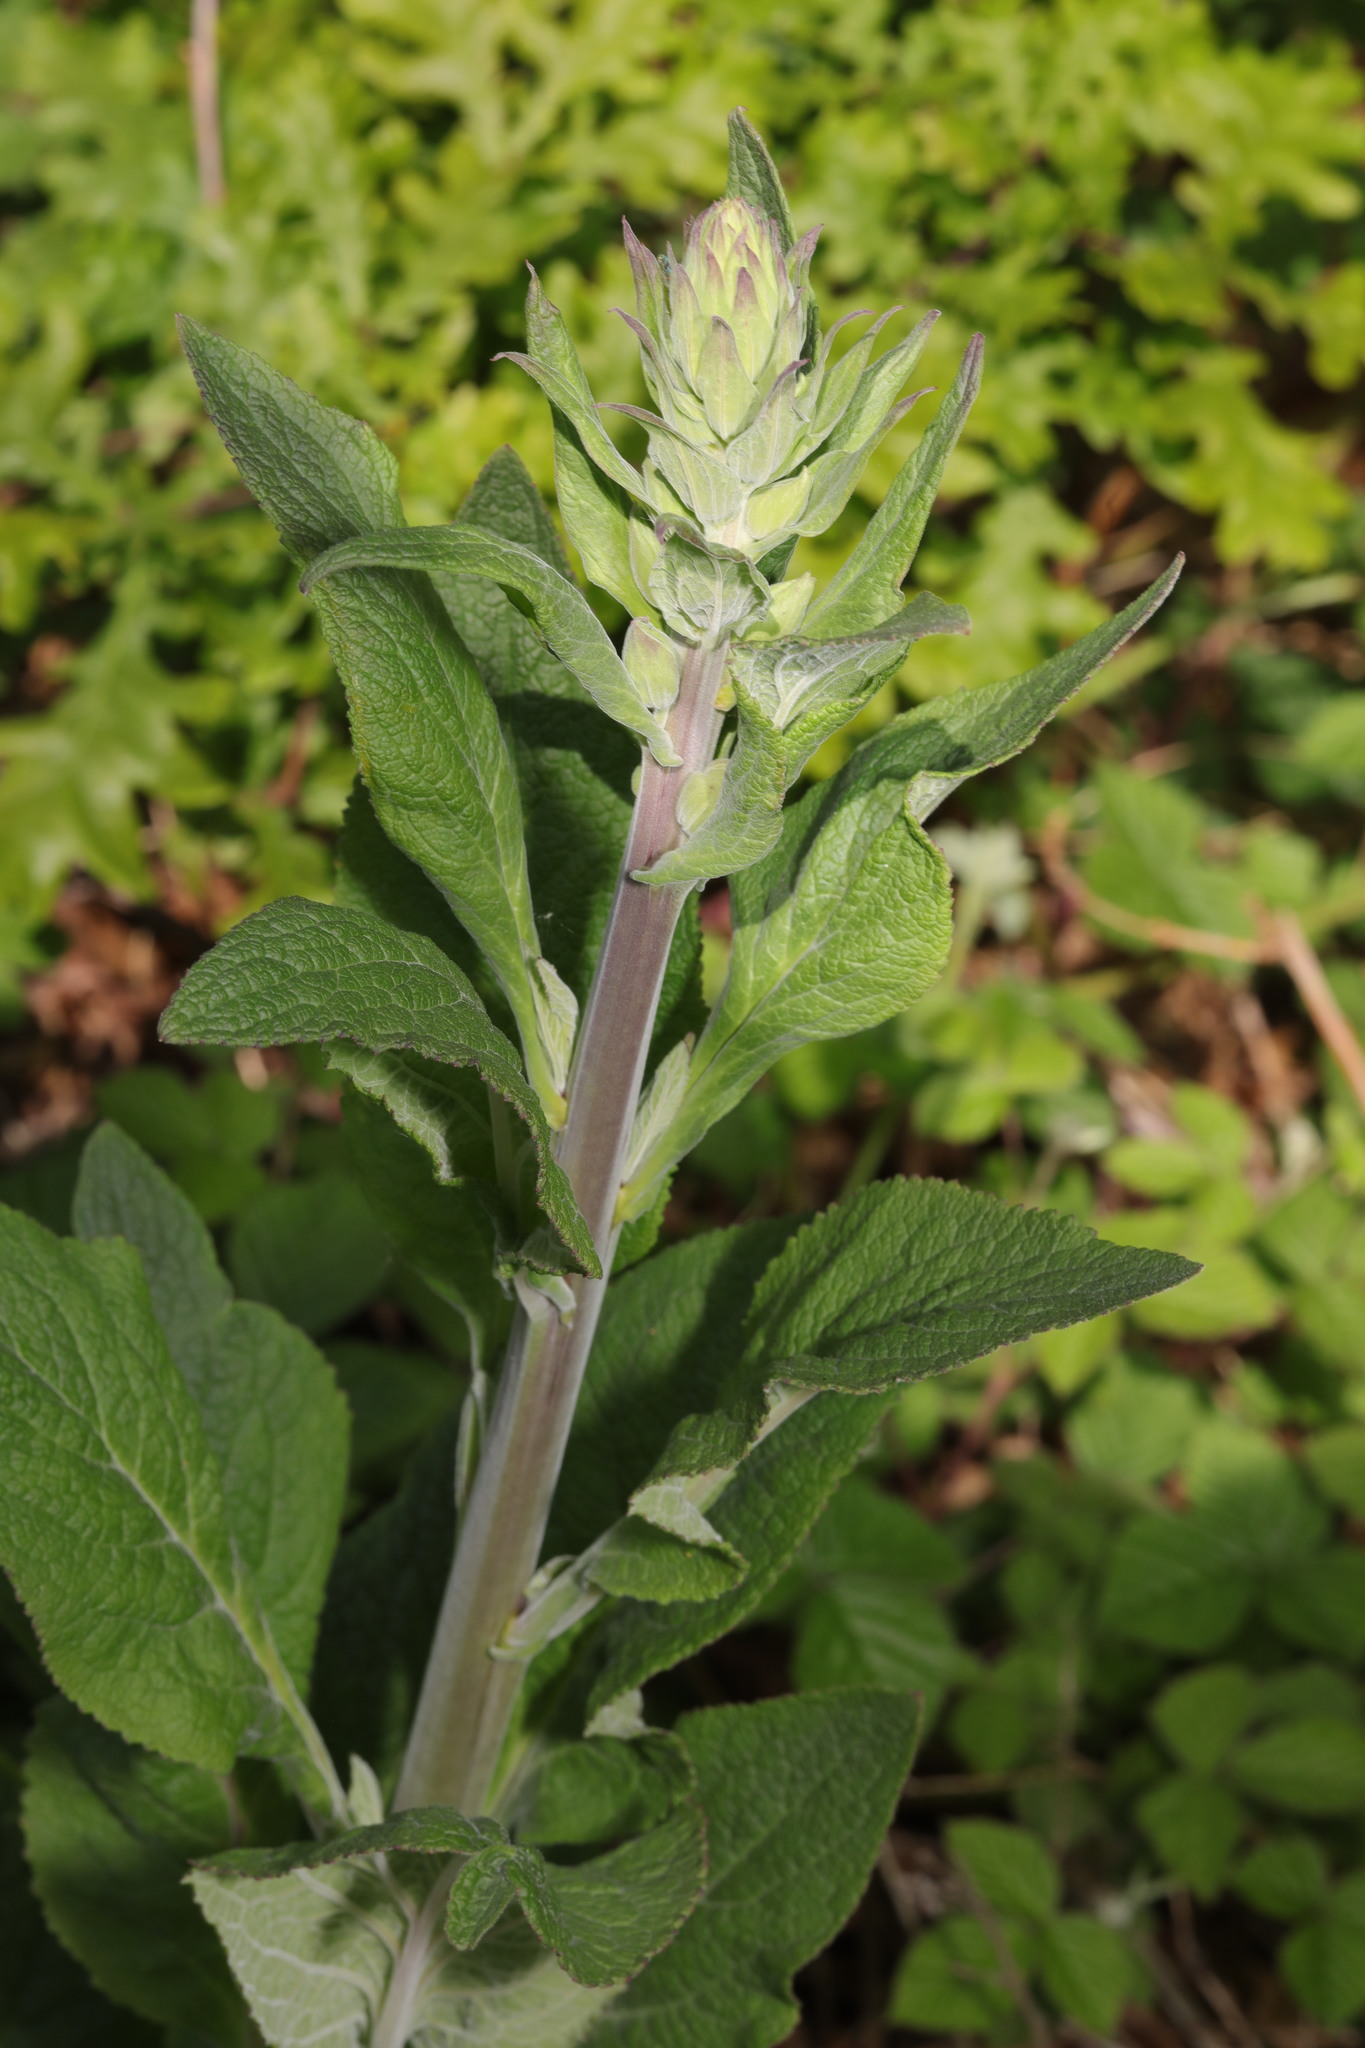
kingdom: Plantae
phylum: Tracheophyta
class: Magnoliopsida
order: Lamiales
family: Plantaginaceae
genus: Digitalis
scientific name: Digitalis purpurea
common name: Foxglove
